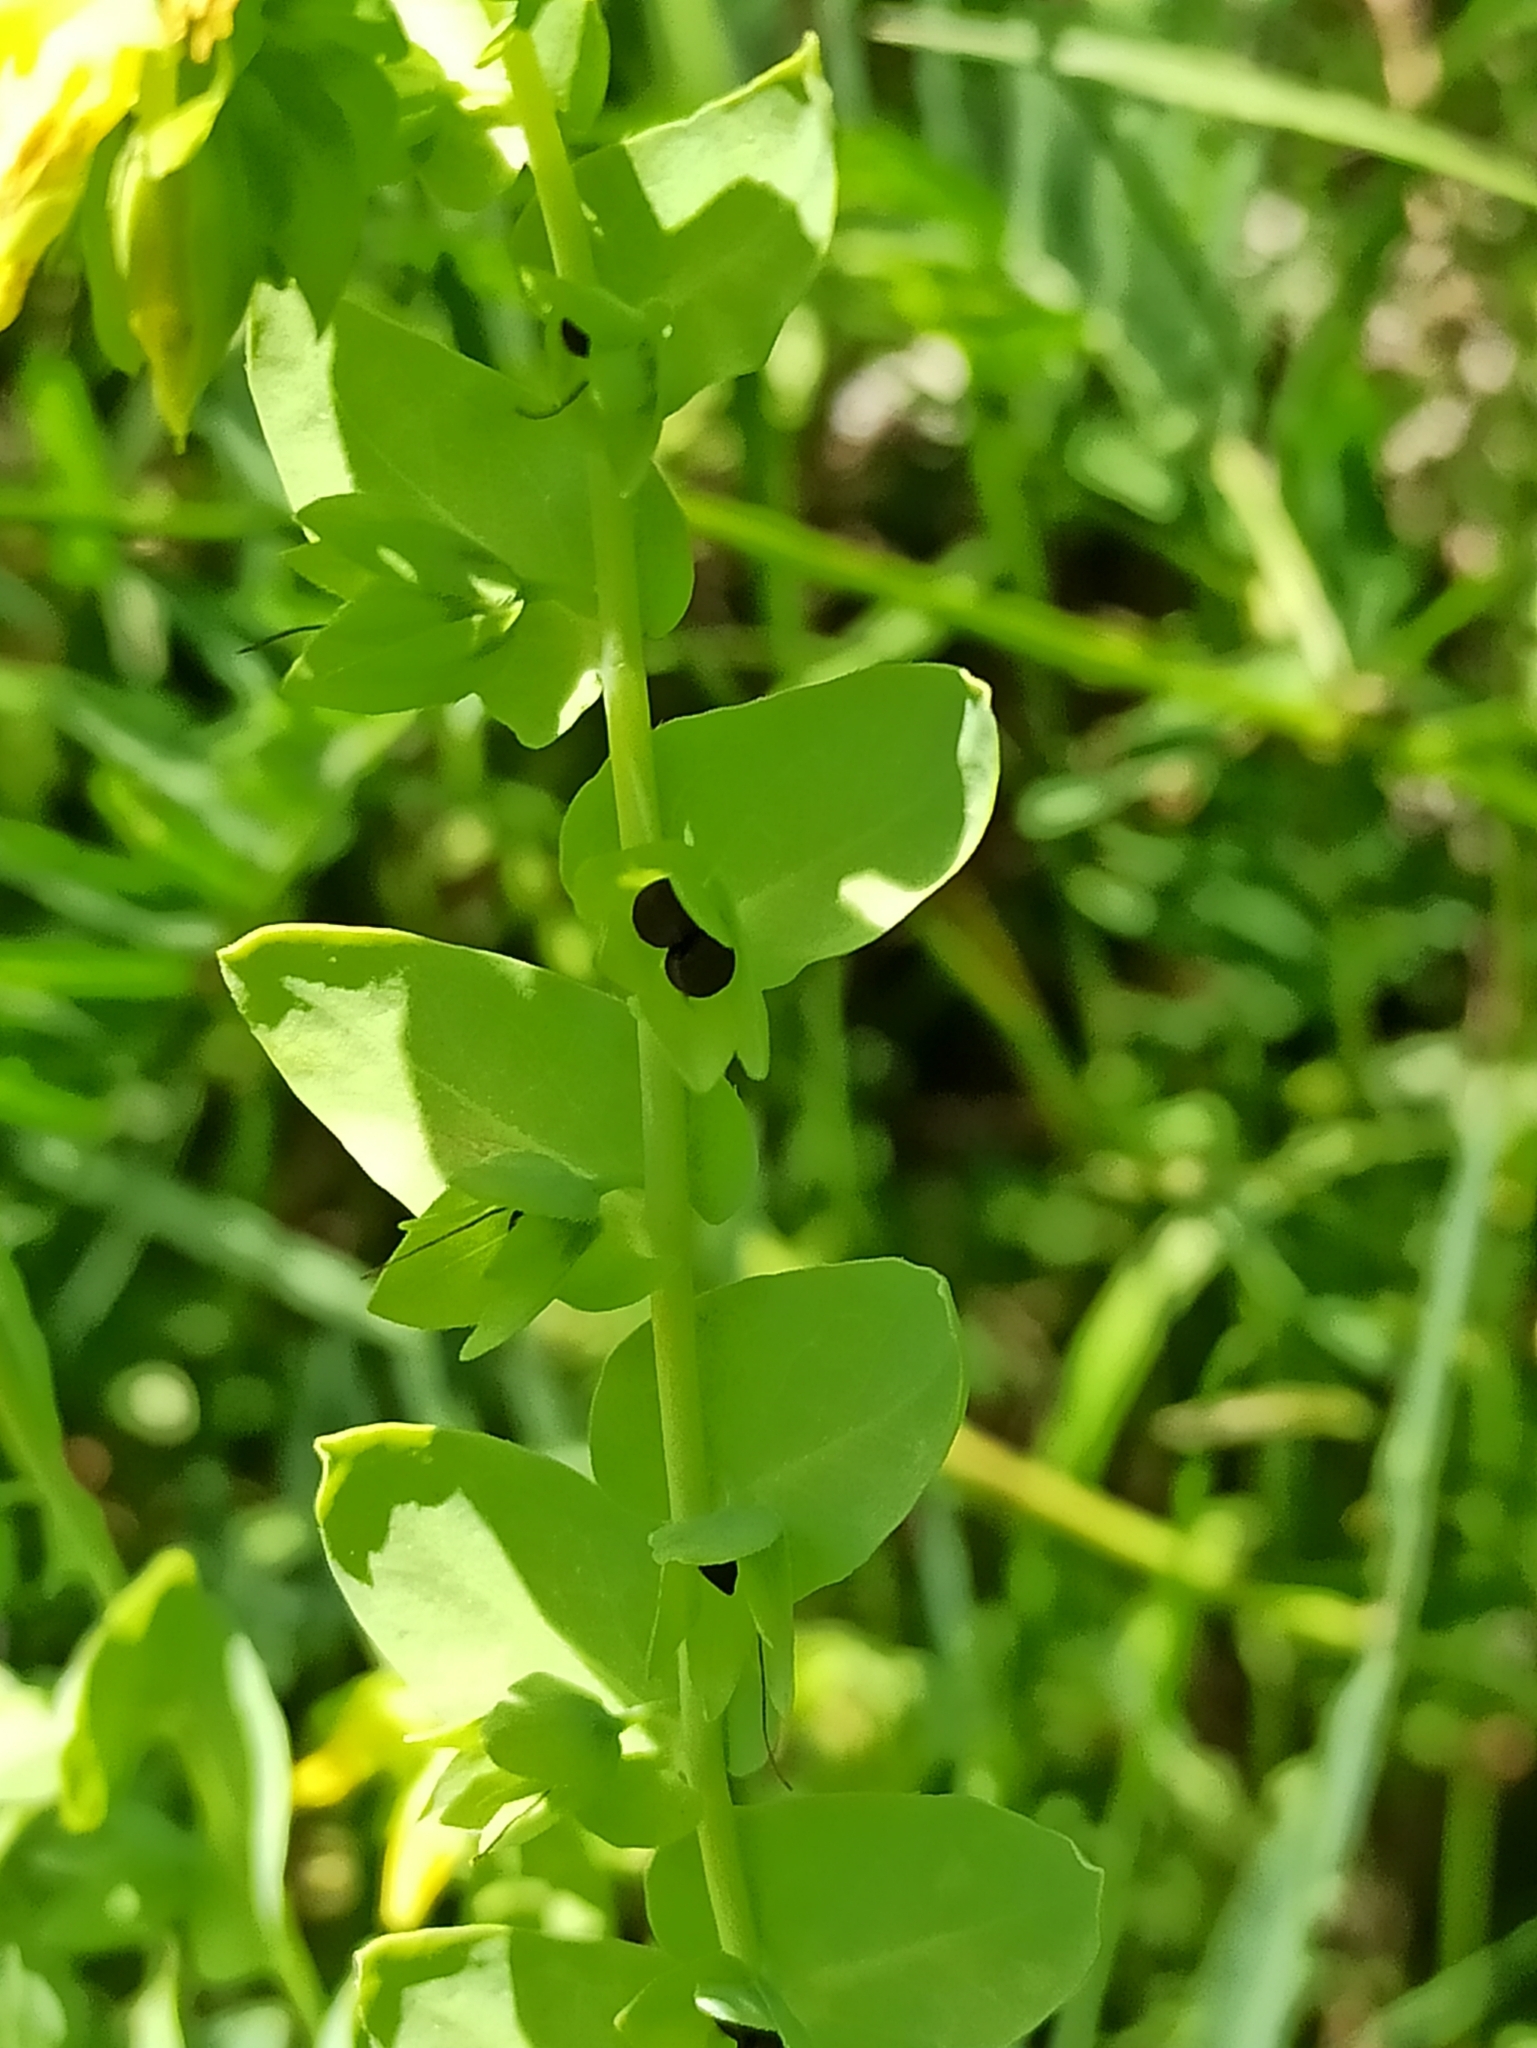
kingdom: Plantae
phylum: Tracheophyta
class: Magnoliopsida
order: Boraginales
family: Boraginaceae
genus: Cerinthe
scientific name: Cerinthe minor
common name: Lesser honeywort
